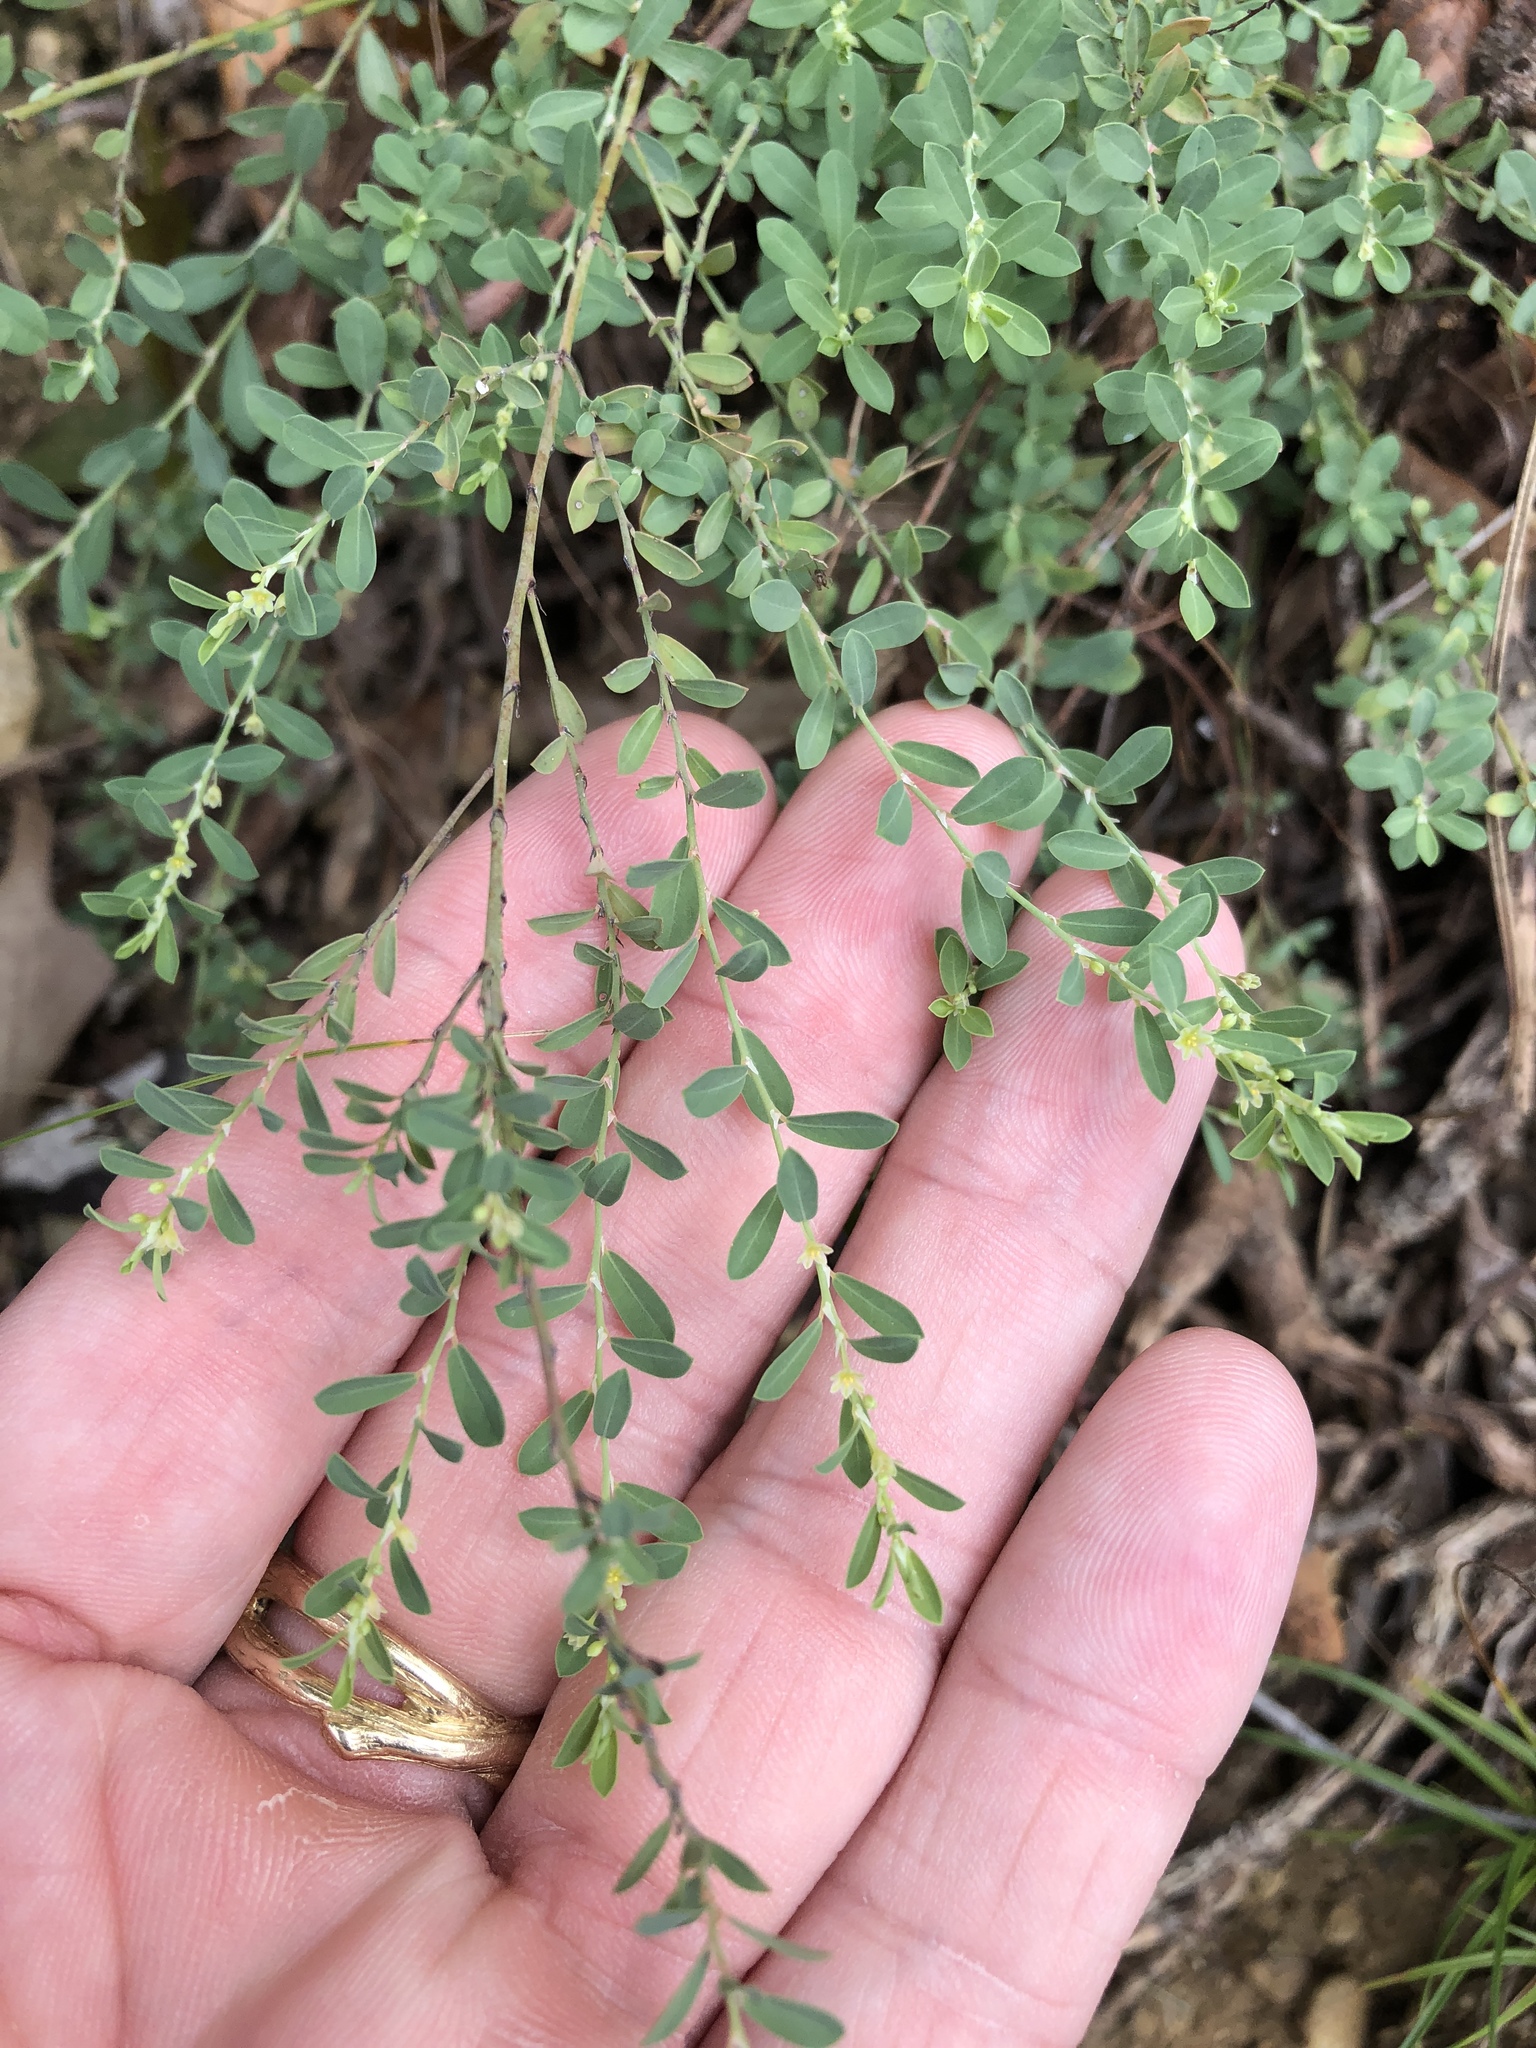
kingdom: Plantae
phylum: Tracheophyta
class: Magnoliopsida
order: Malpighiales
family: Phyllanthaceae
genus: Phyllanthus
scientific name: Phyllanthus polygonoides
